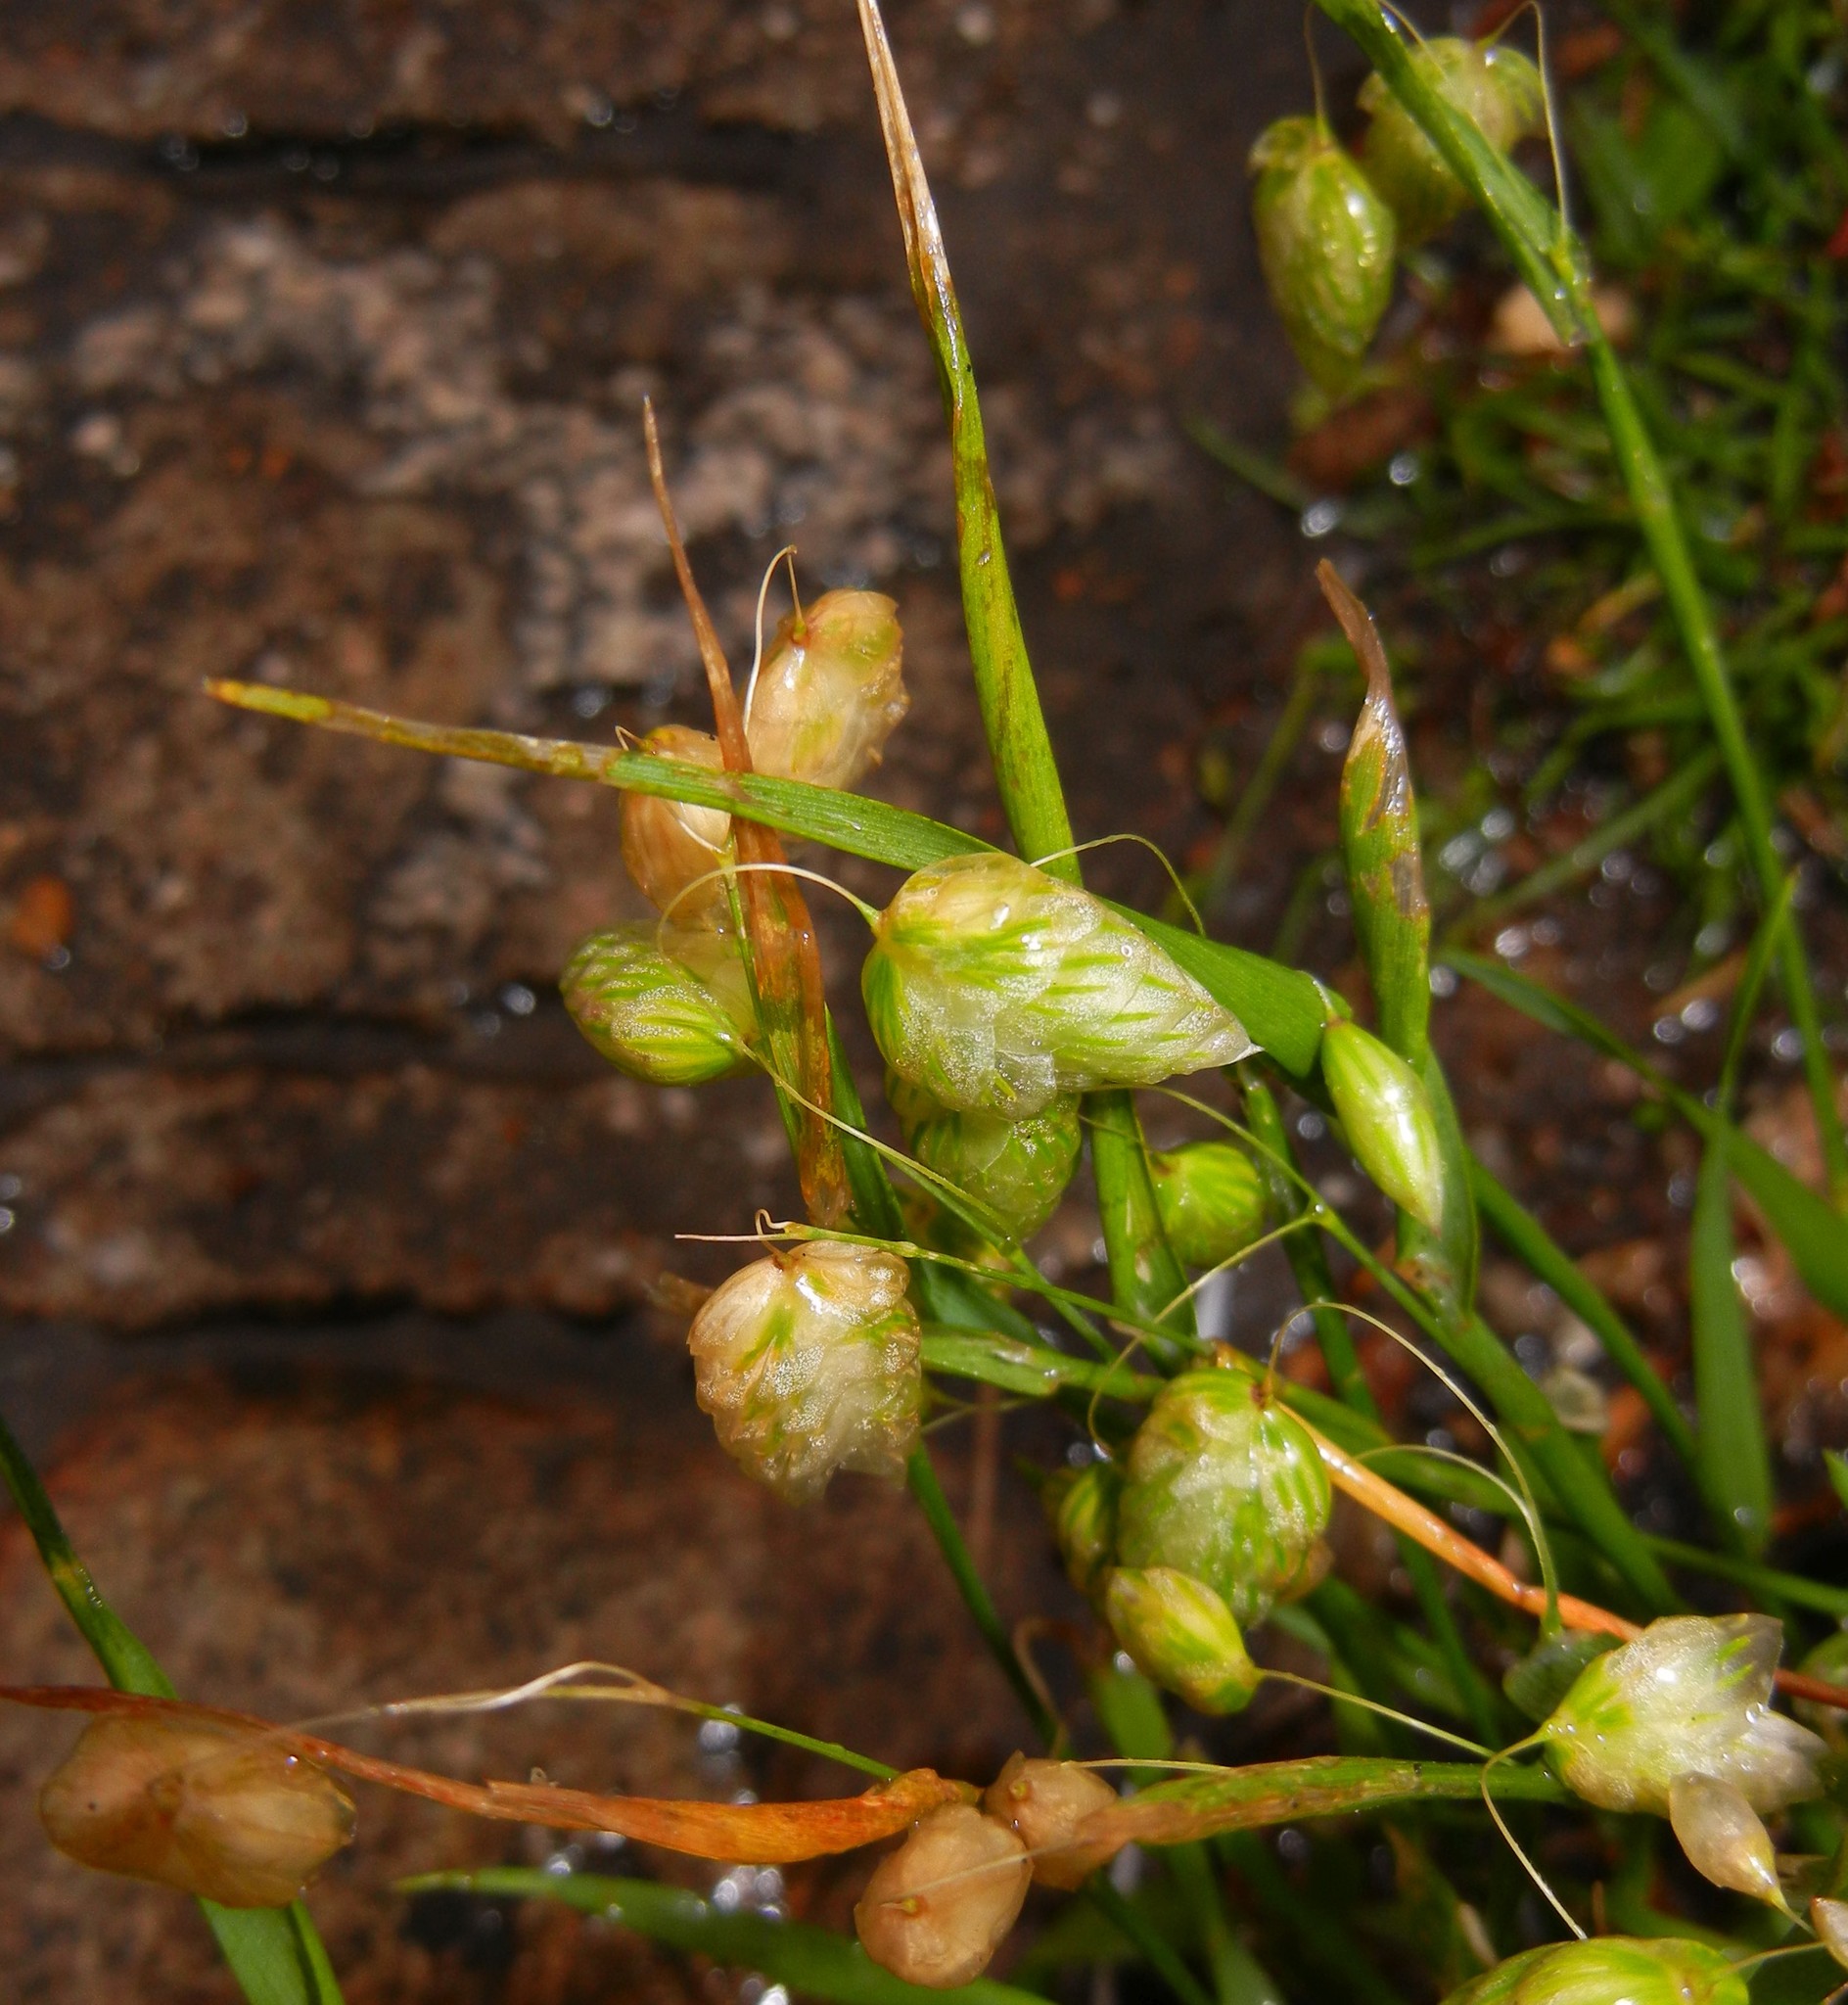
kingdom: Plantae
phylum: Tracheophyta
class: Liliopsida
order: Poales
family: Poaceae
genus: Briza
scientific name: Briza maxima
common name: Big quakinggrass
